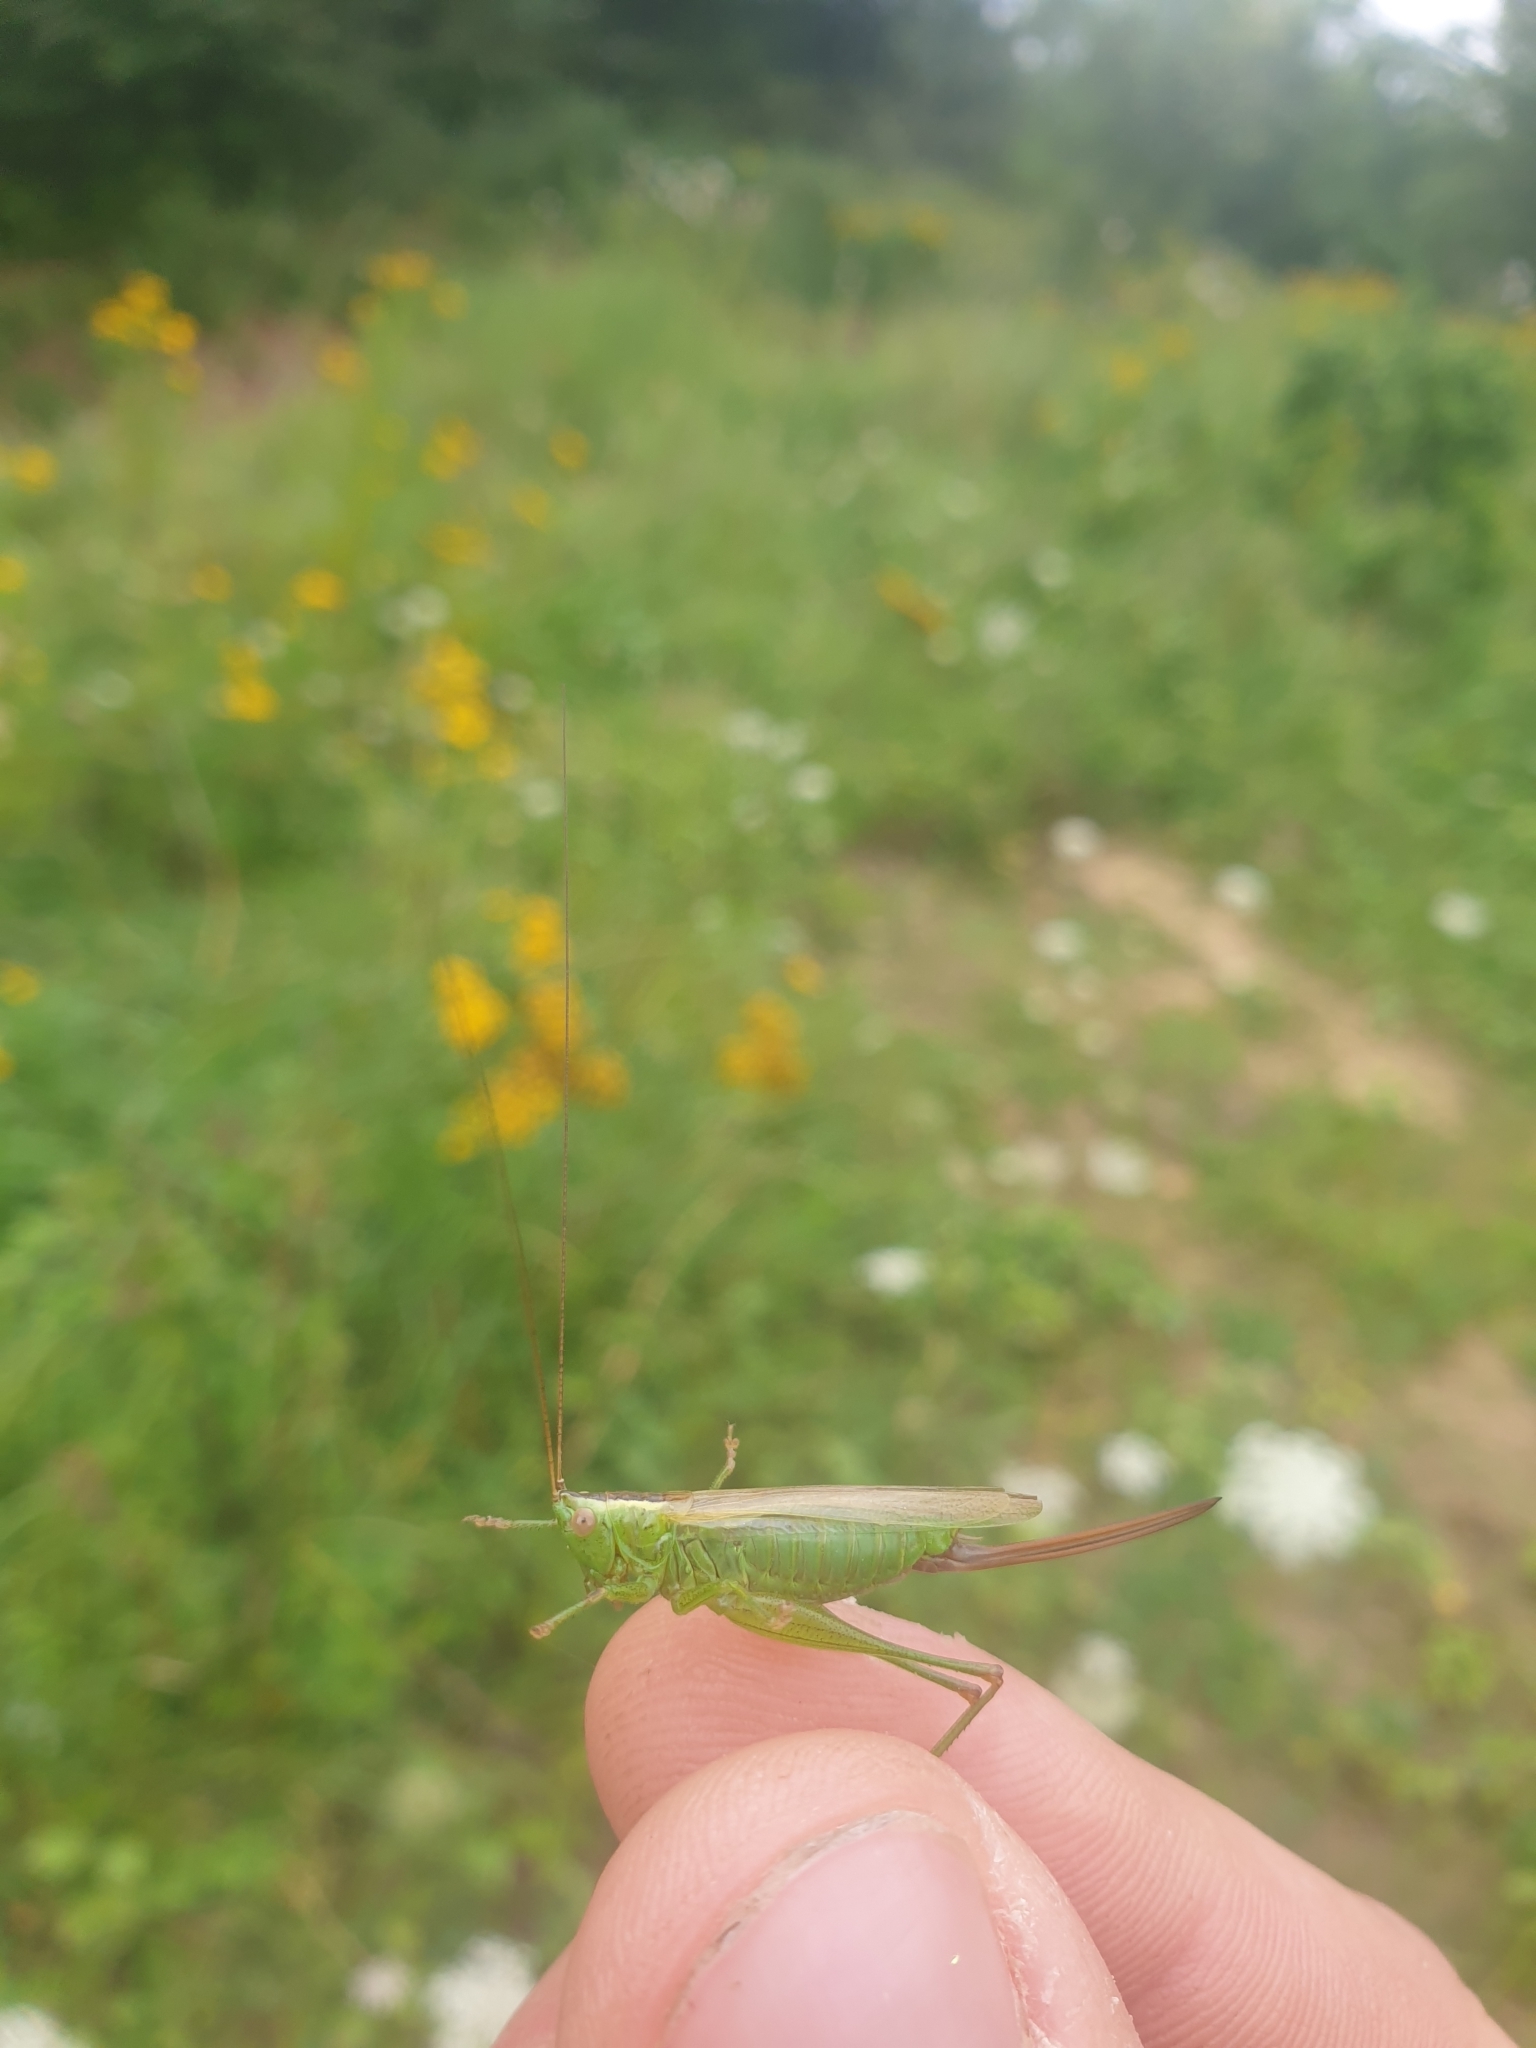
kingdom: Animalia
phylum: Arthropoda
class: Insecta
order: Orthoptera
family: Tettigoniidae
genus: Conocephalus
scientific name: Conocephalus fuscus
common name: Long-winged conehead
